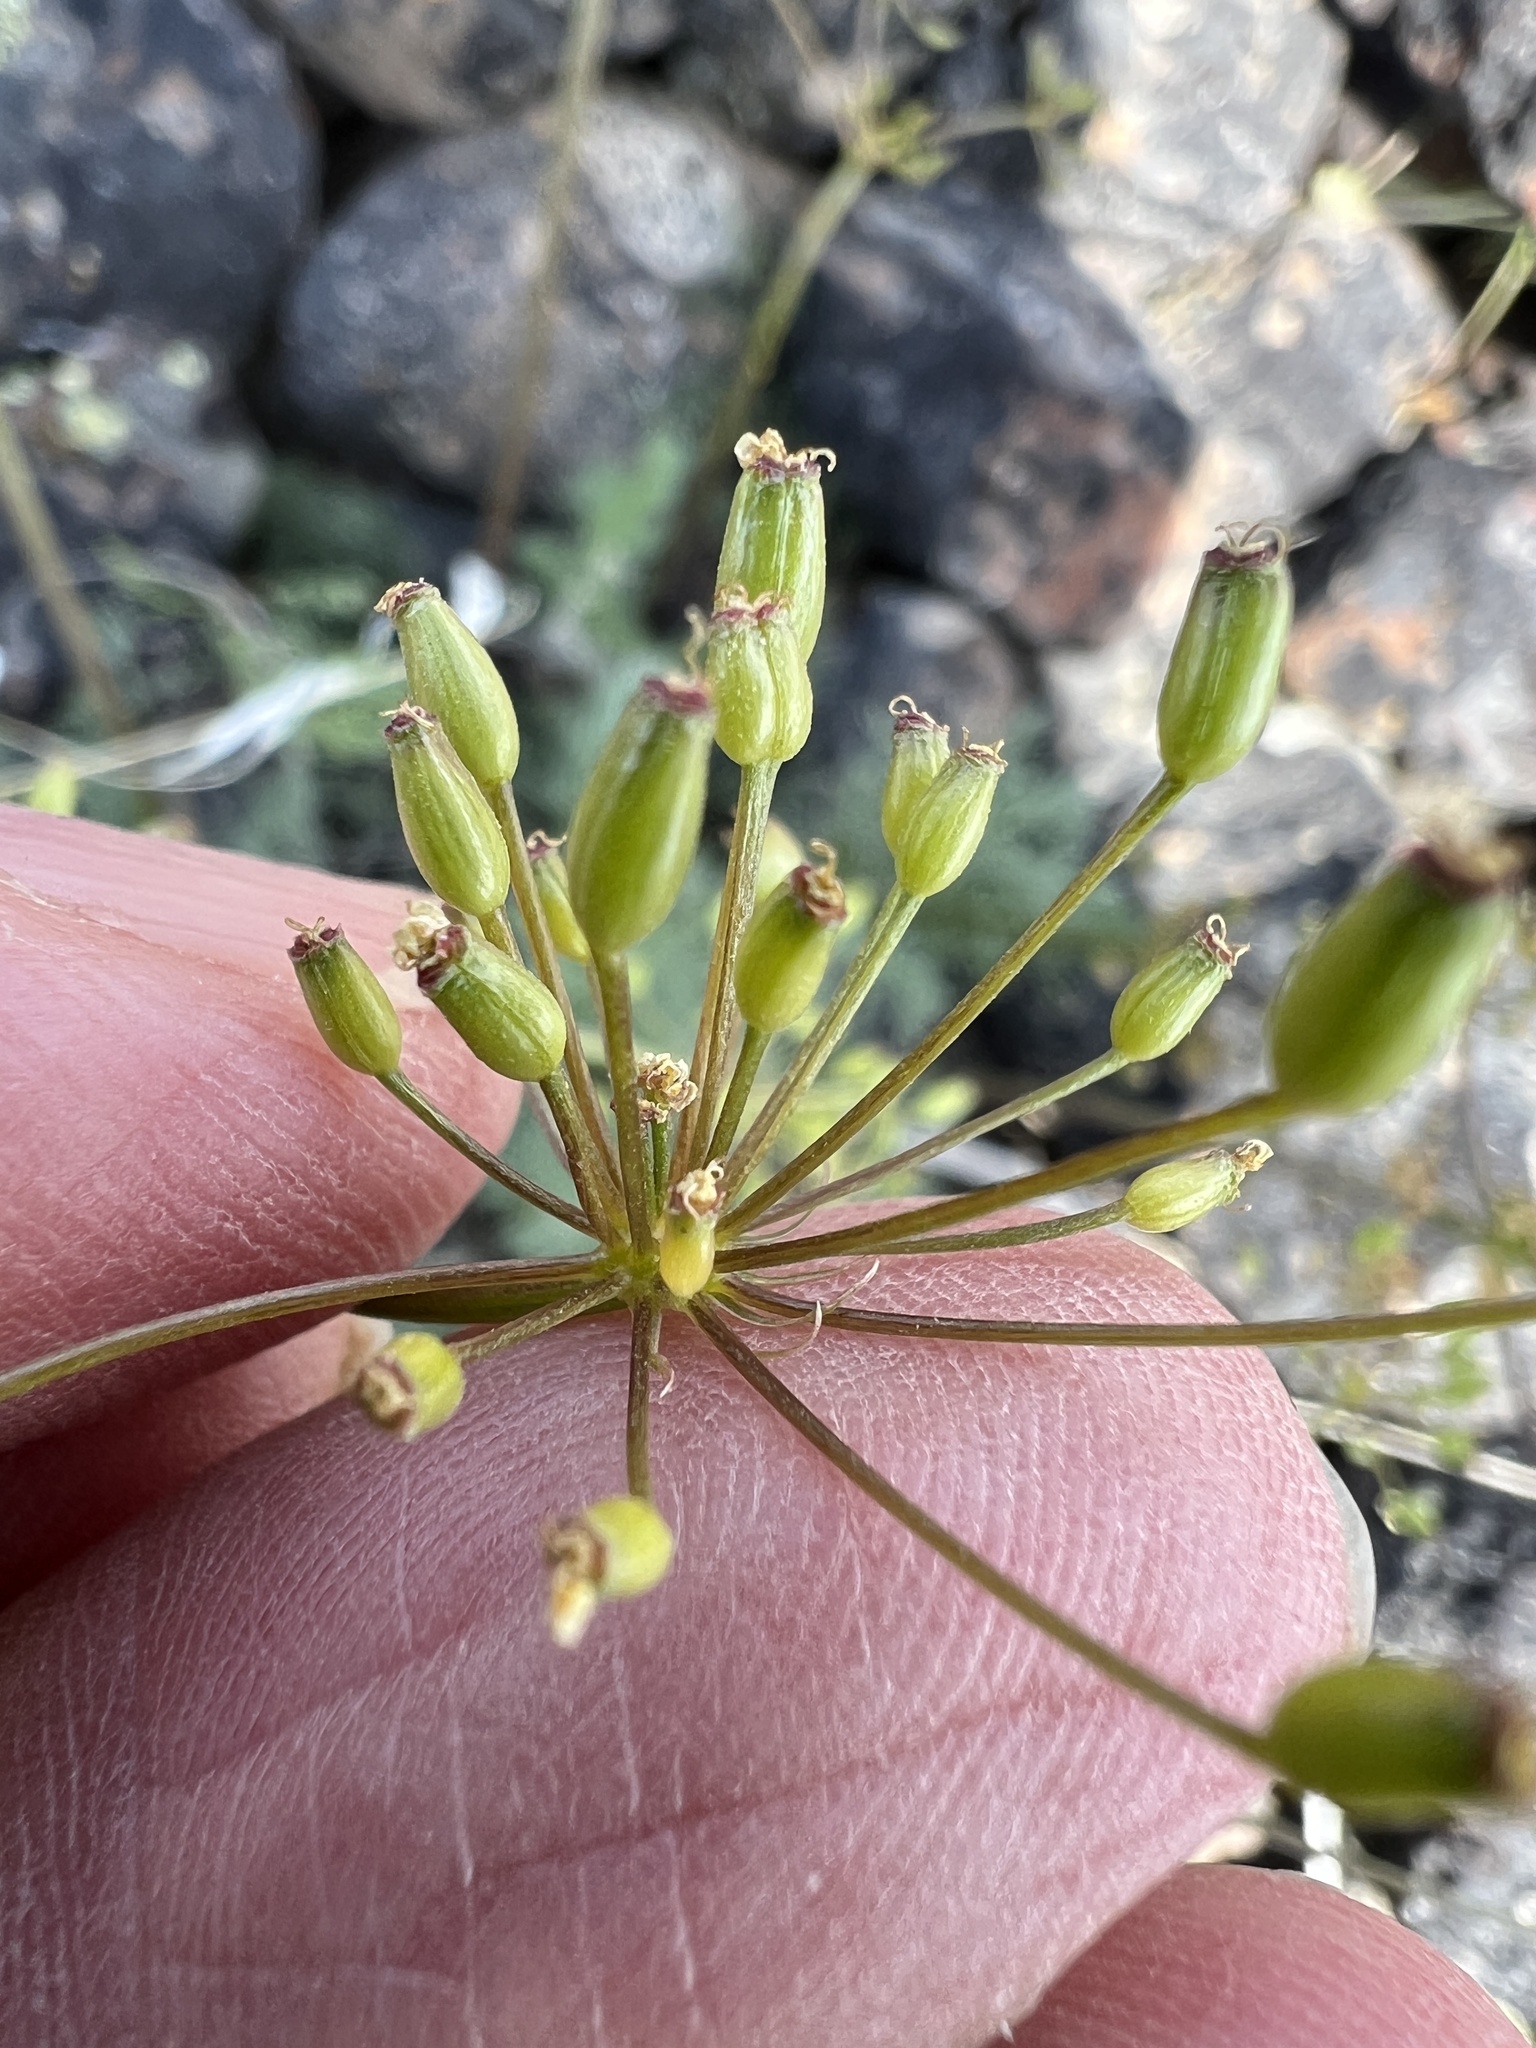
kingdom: Plantae
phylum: Tracheophyta
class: Magnoliopsida
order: Apiales
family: Apiaceae
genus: Lomatium
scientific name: Lomatium quintuplex
